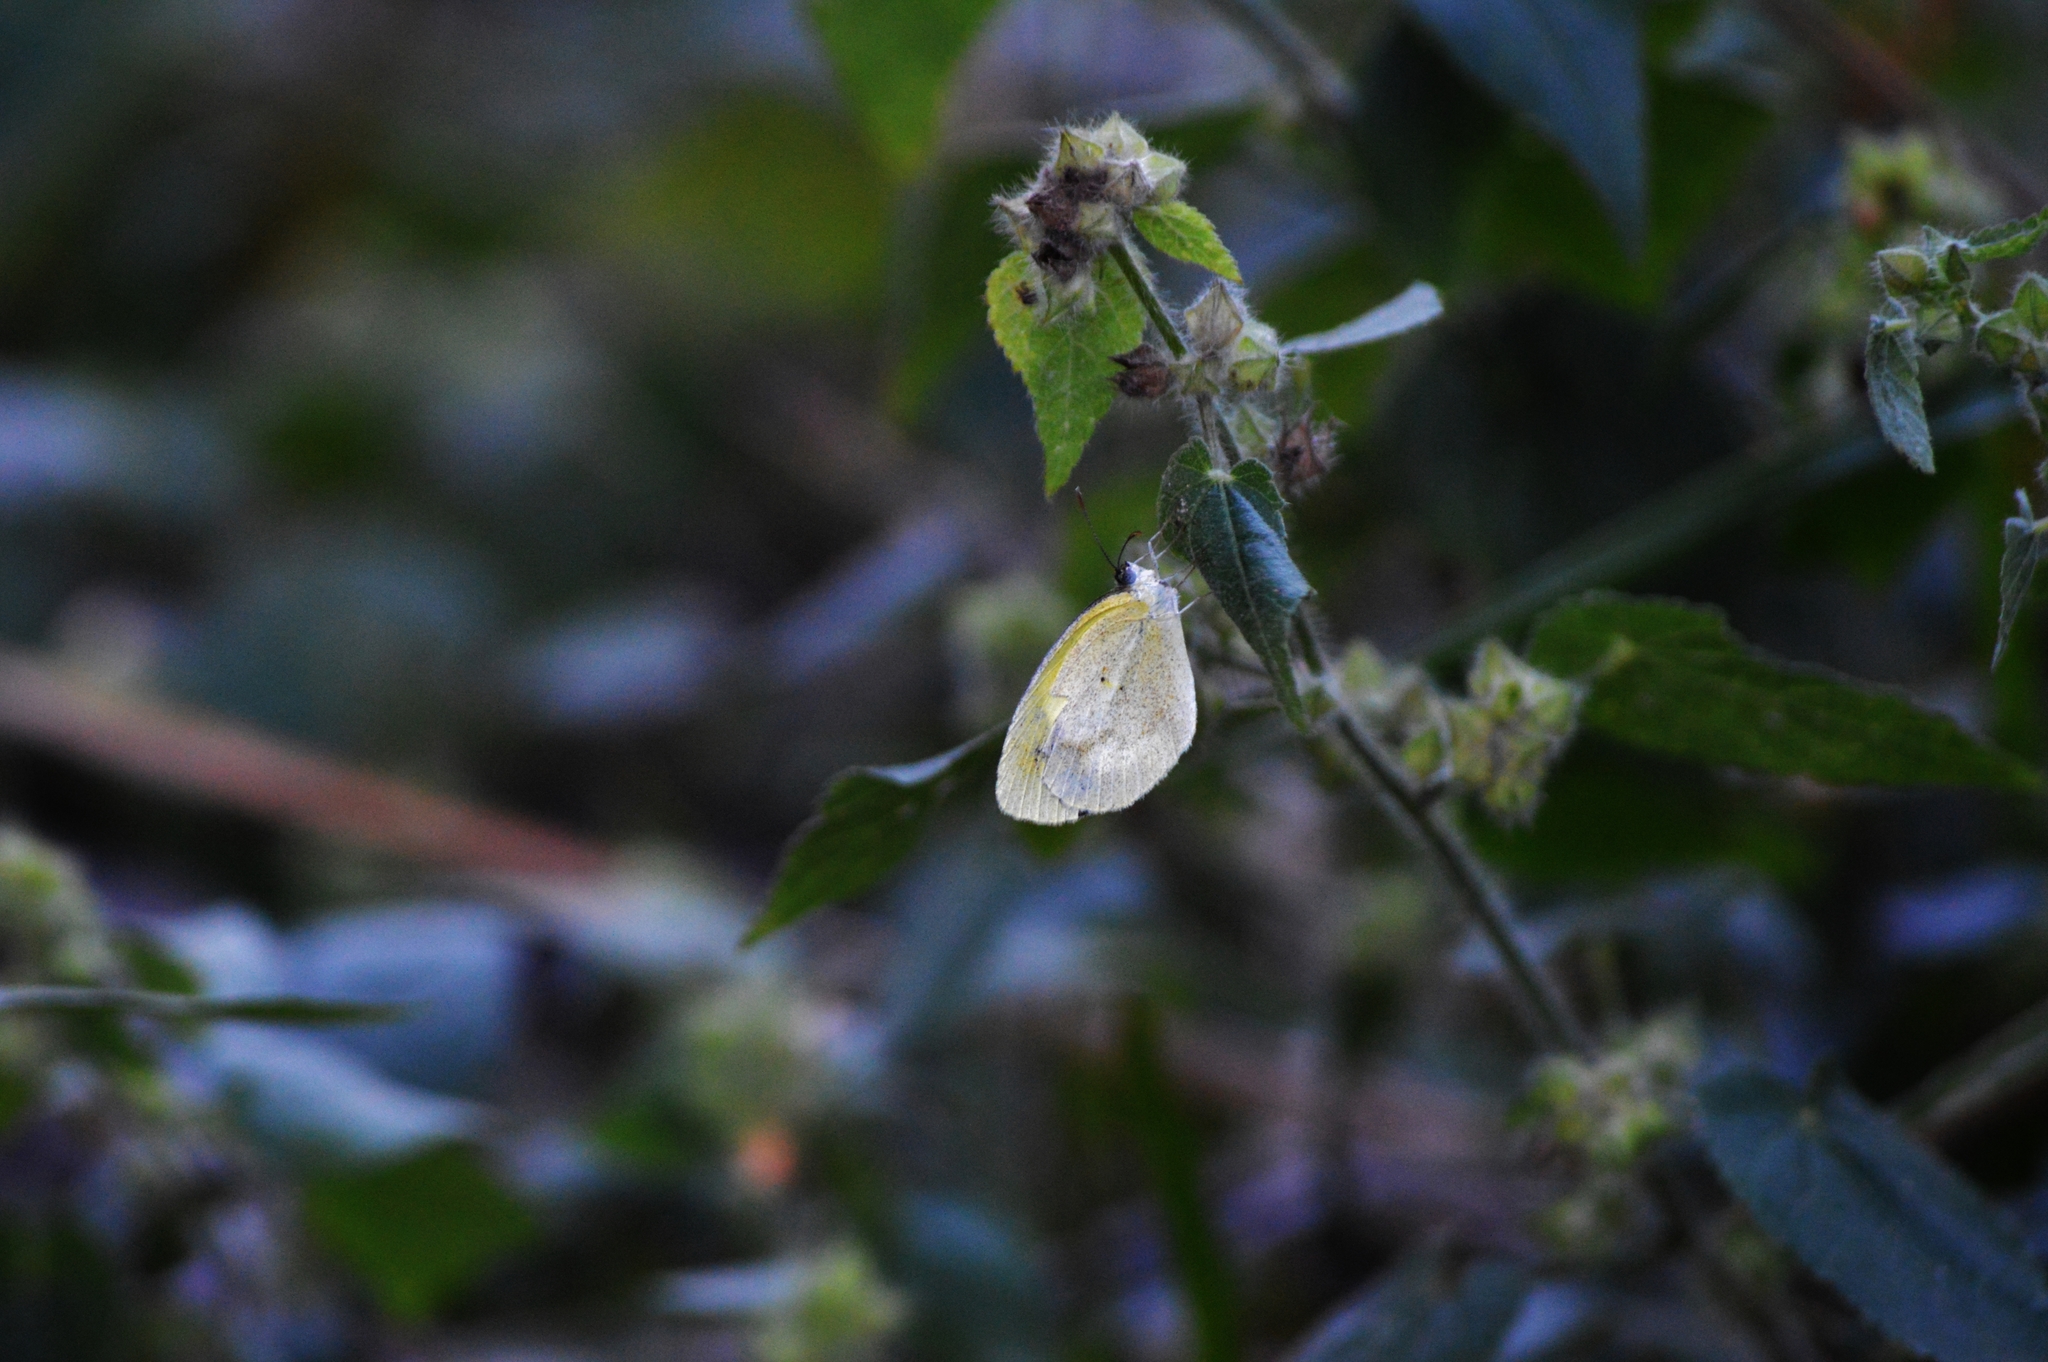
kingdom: Animalia
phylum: Arthropoda
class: Insecta
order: Lepidoptera
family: Pieridae
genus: Pyrisitia
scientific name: Pyrisitia nise
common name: Mimosa yellow
